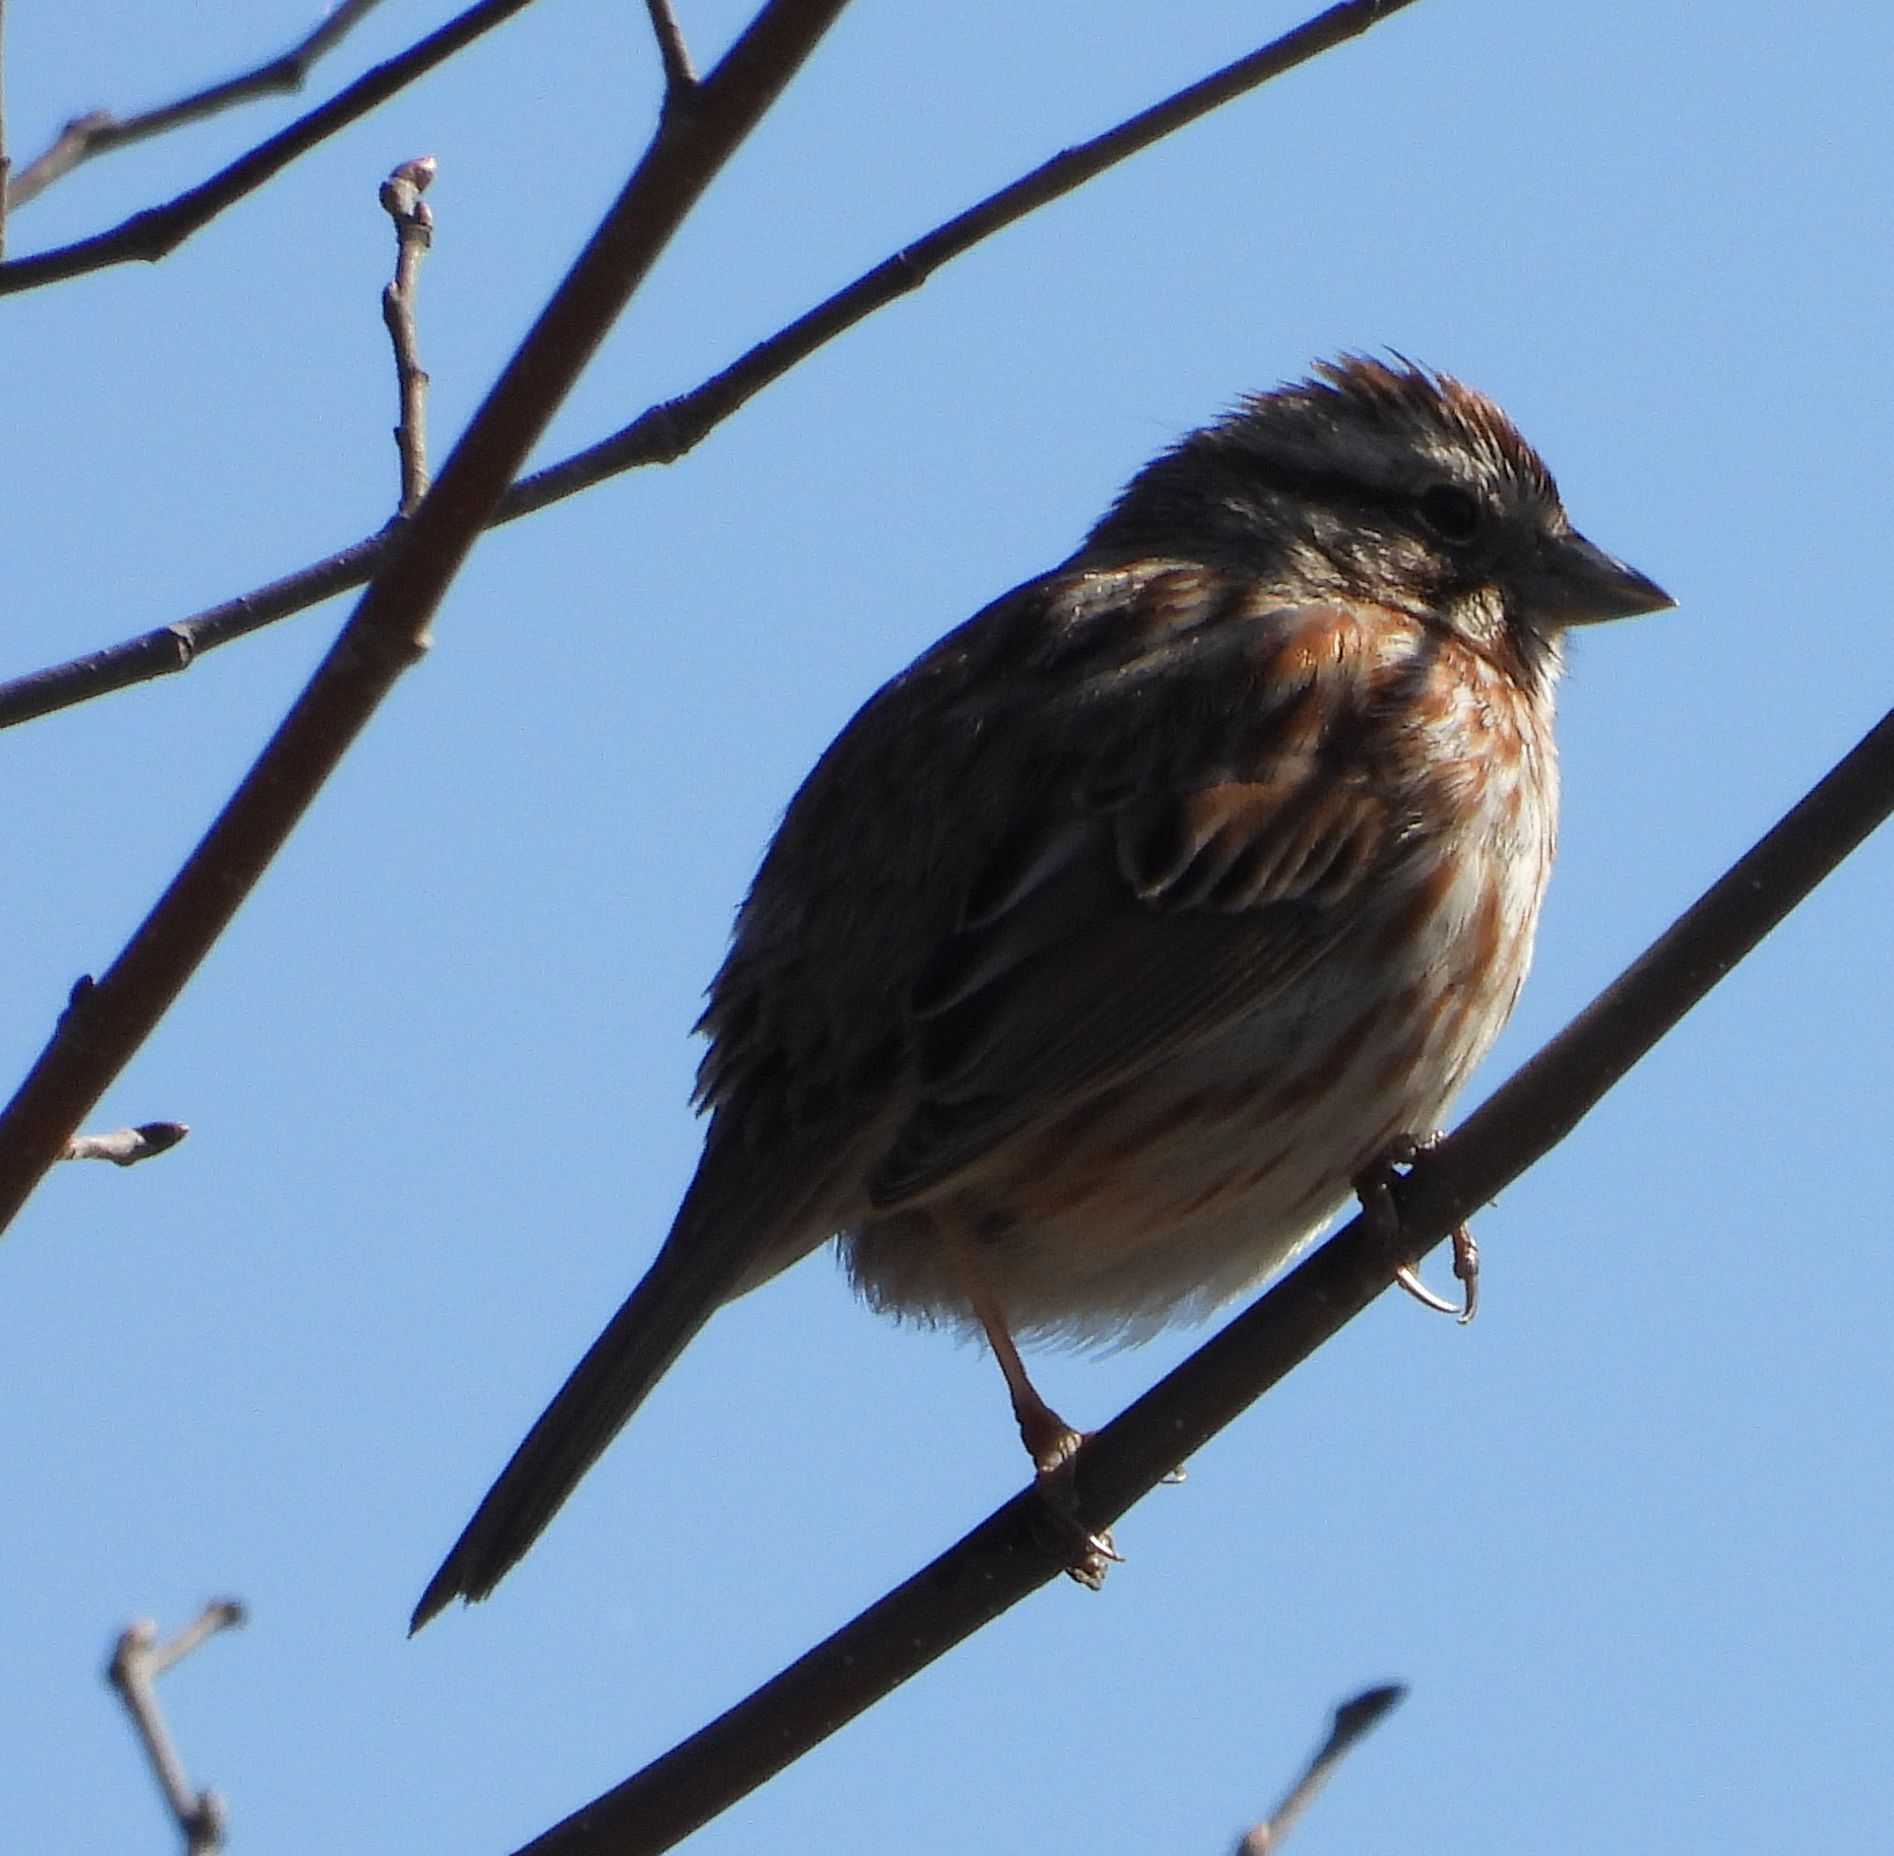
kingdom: Animalia
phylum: Chordata
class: Aves
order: Passeriformes
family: Passerellidae
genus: Melospiza
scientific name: Melospiza melodia
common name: Song sparrow
